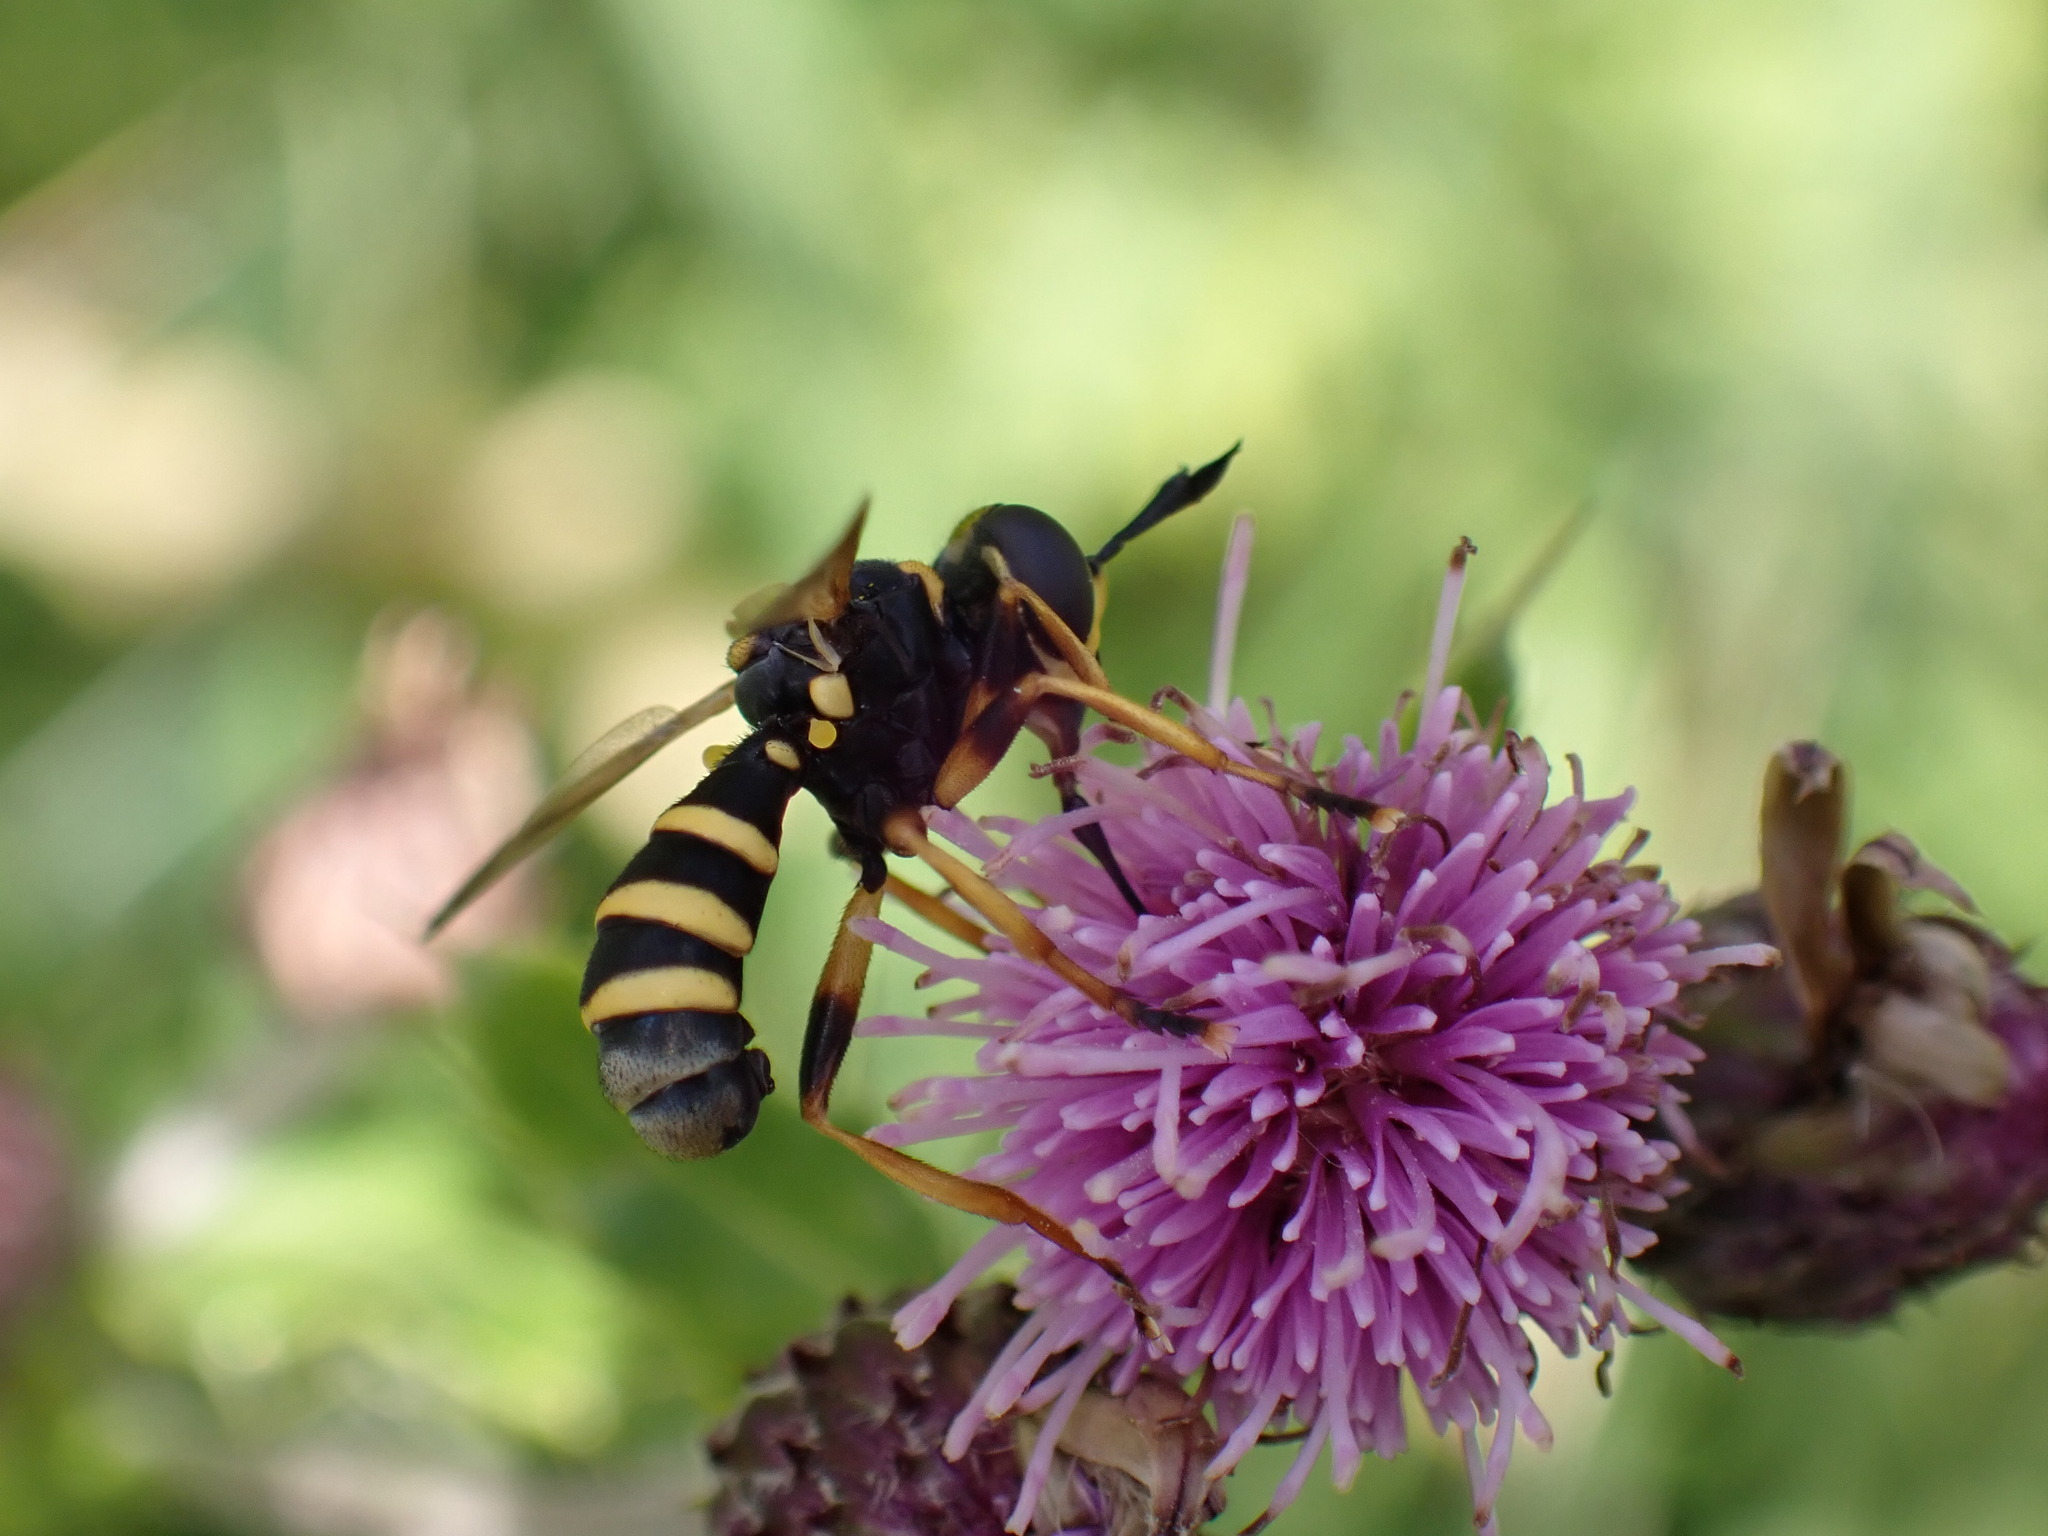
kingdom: Animalia
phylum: Arthropoda
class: Insecta
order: Diptera
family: Conopidae
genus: Conops
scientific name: Conops flavipes
